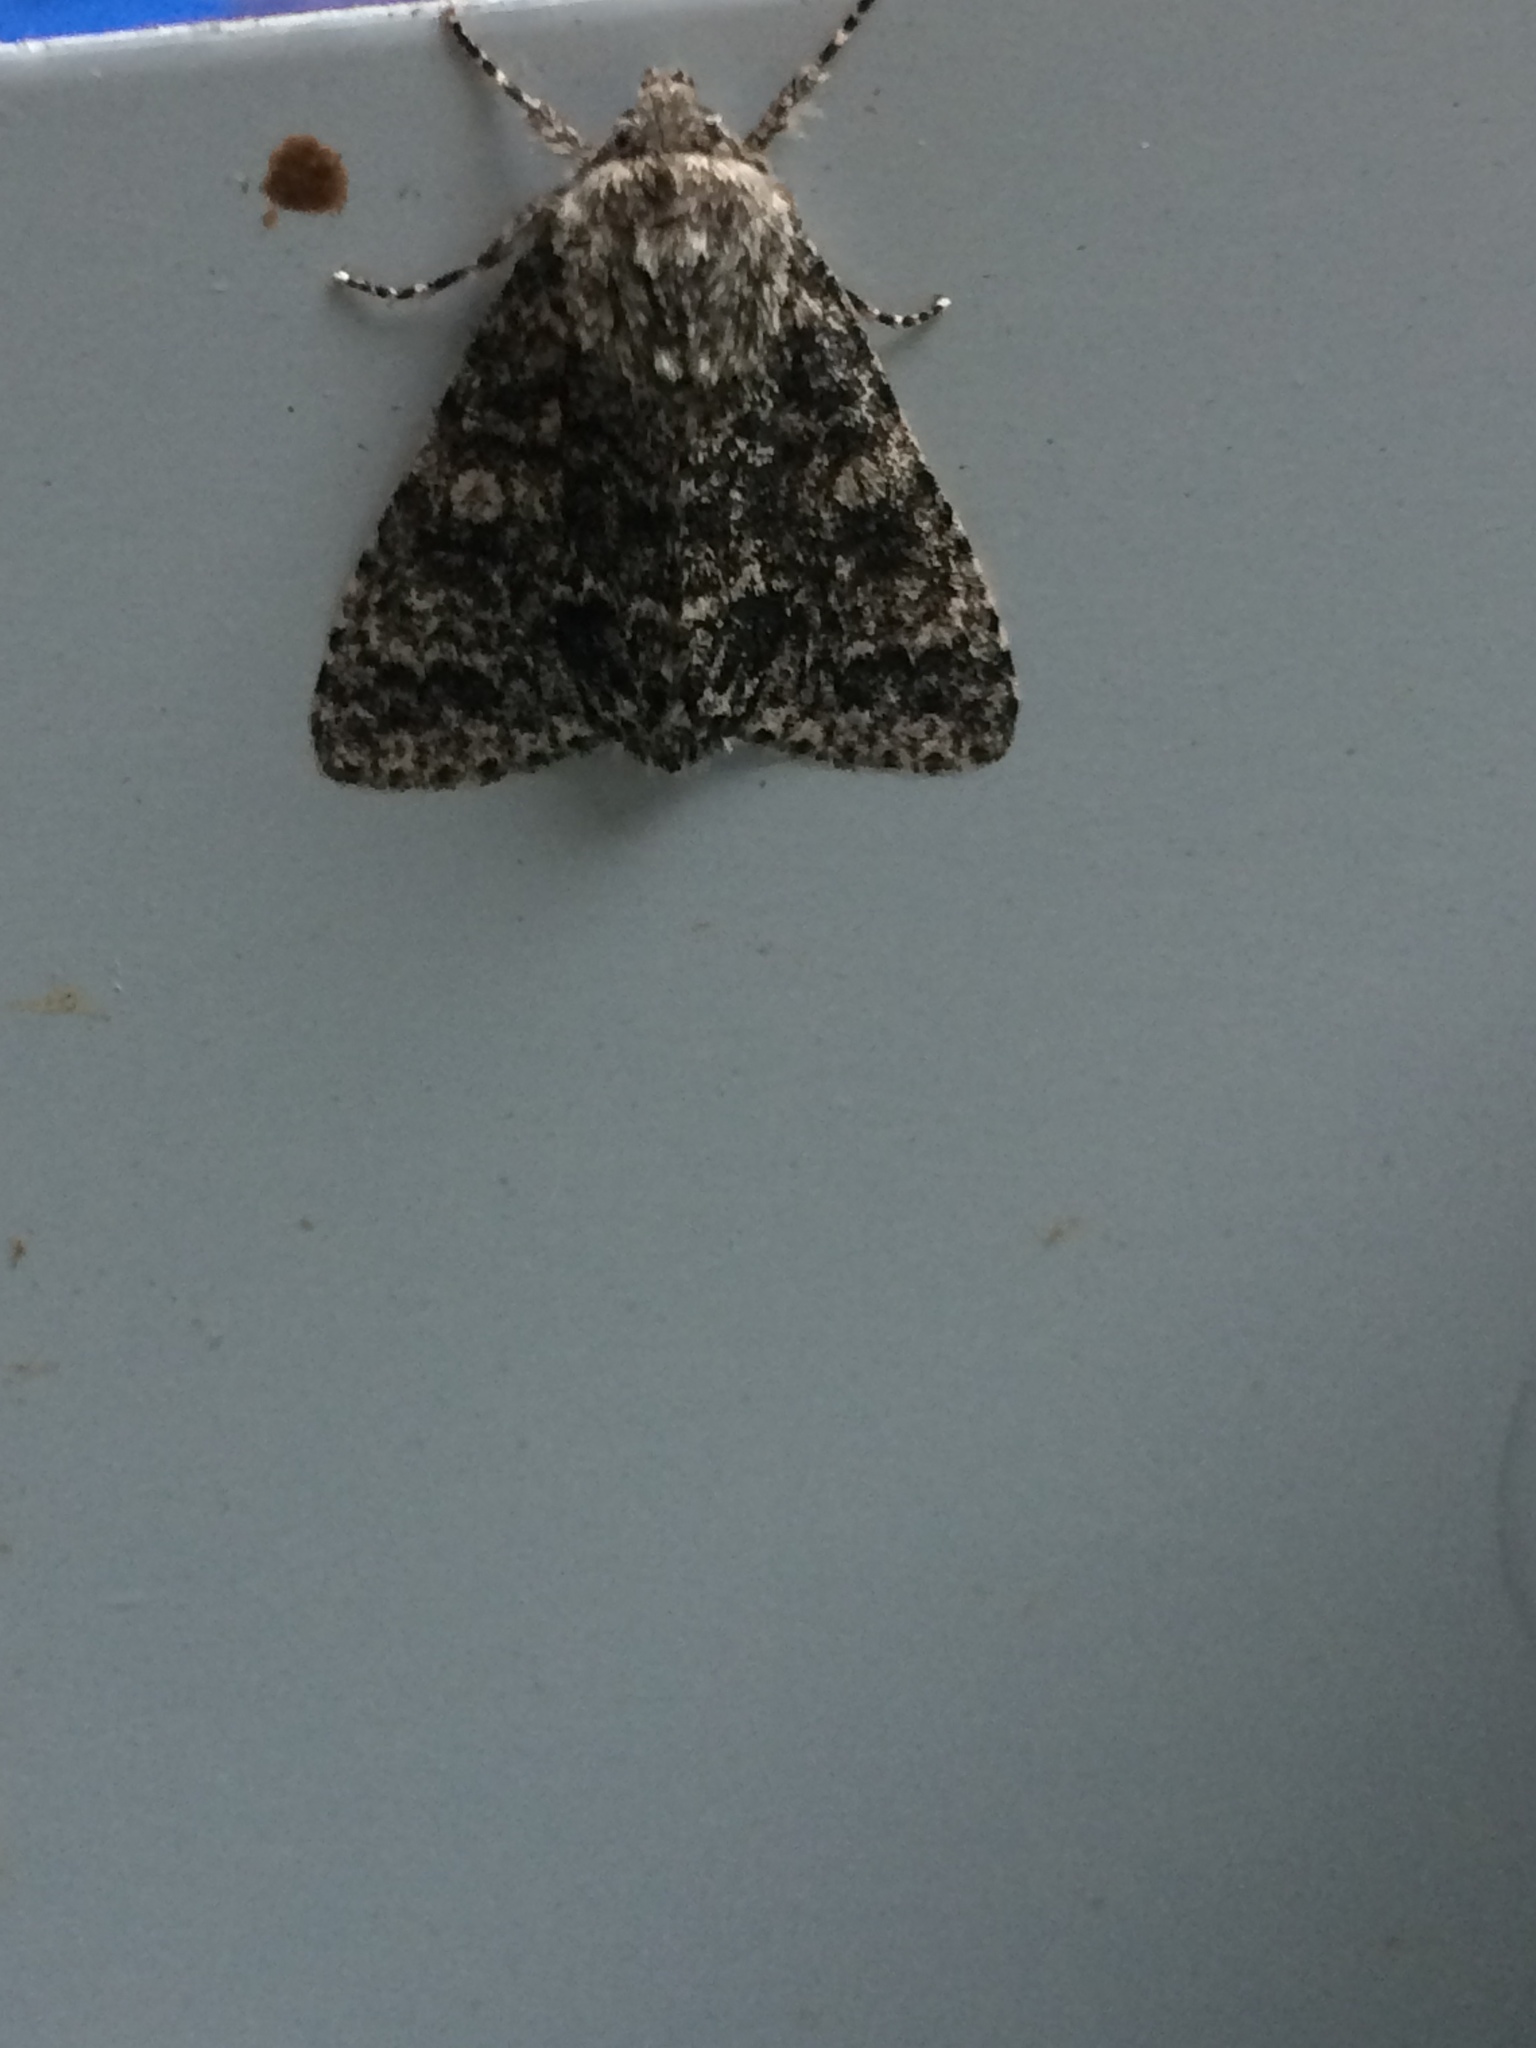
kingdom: Animalia
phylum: Arthropoda
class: Insecta
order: Lepidoptera
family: Noctuidae
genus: Acronicta
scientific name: Acronicta megacephala
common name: Poplar grey
